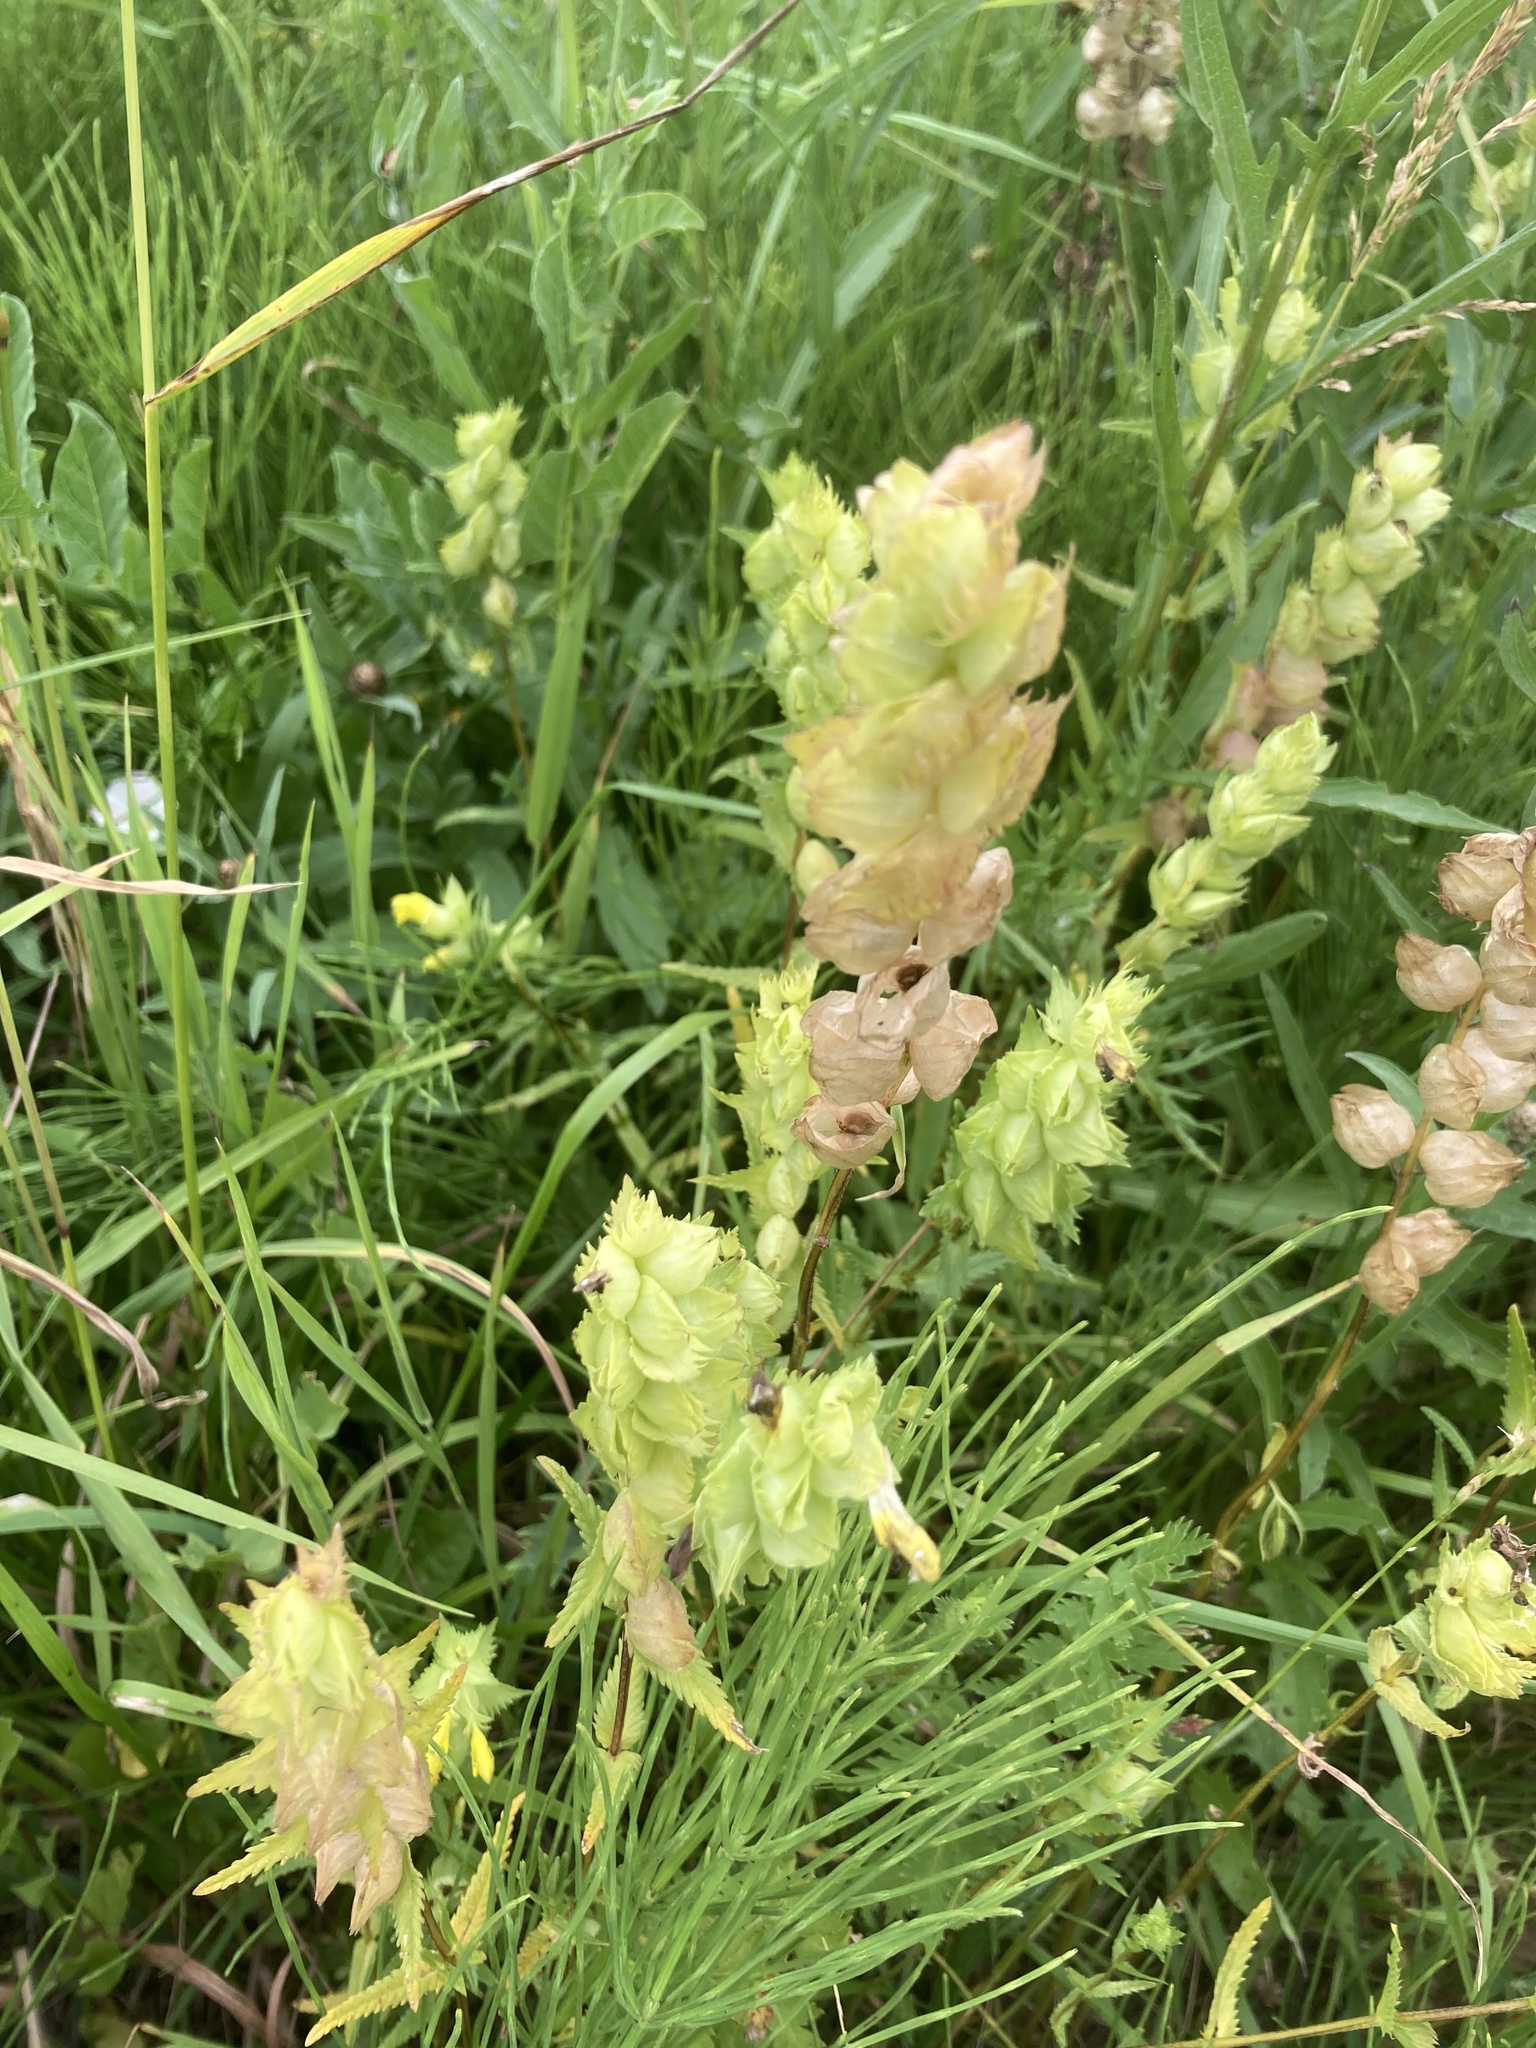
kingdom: Plantae
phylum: Tracheophyta
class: Magnoliopsida
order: Lamiales
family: Orobanchaceae
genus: Rhinanthus
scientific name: Rhinanthus serotinus
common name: Late-flowering yellow rattle
